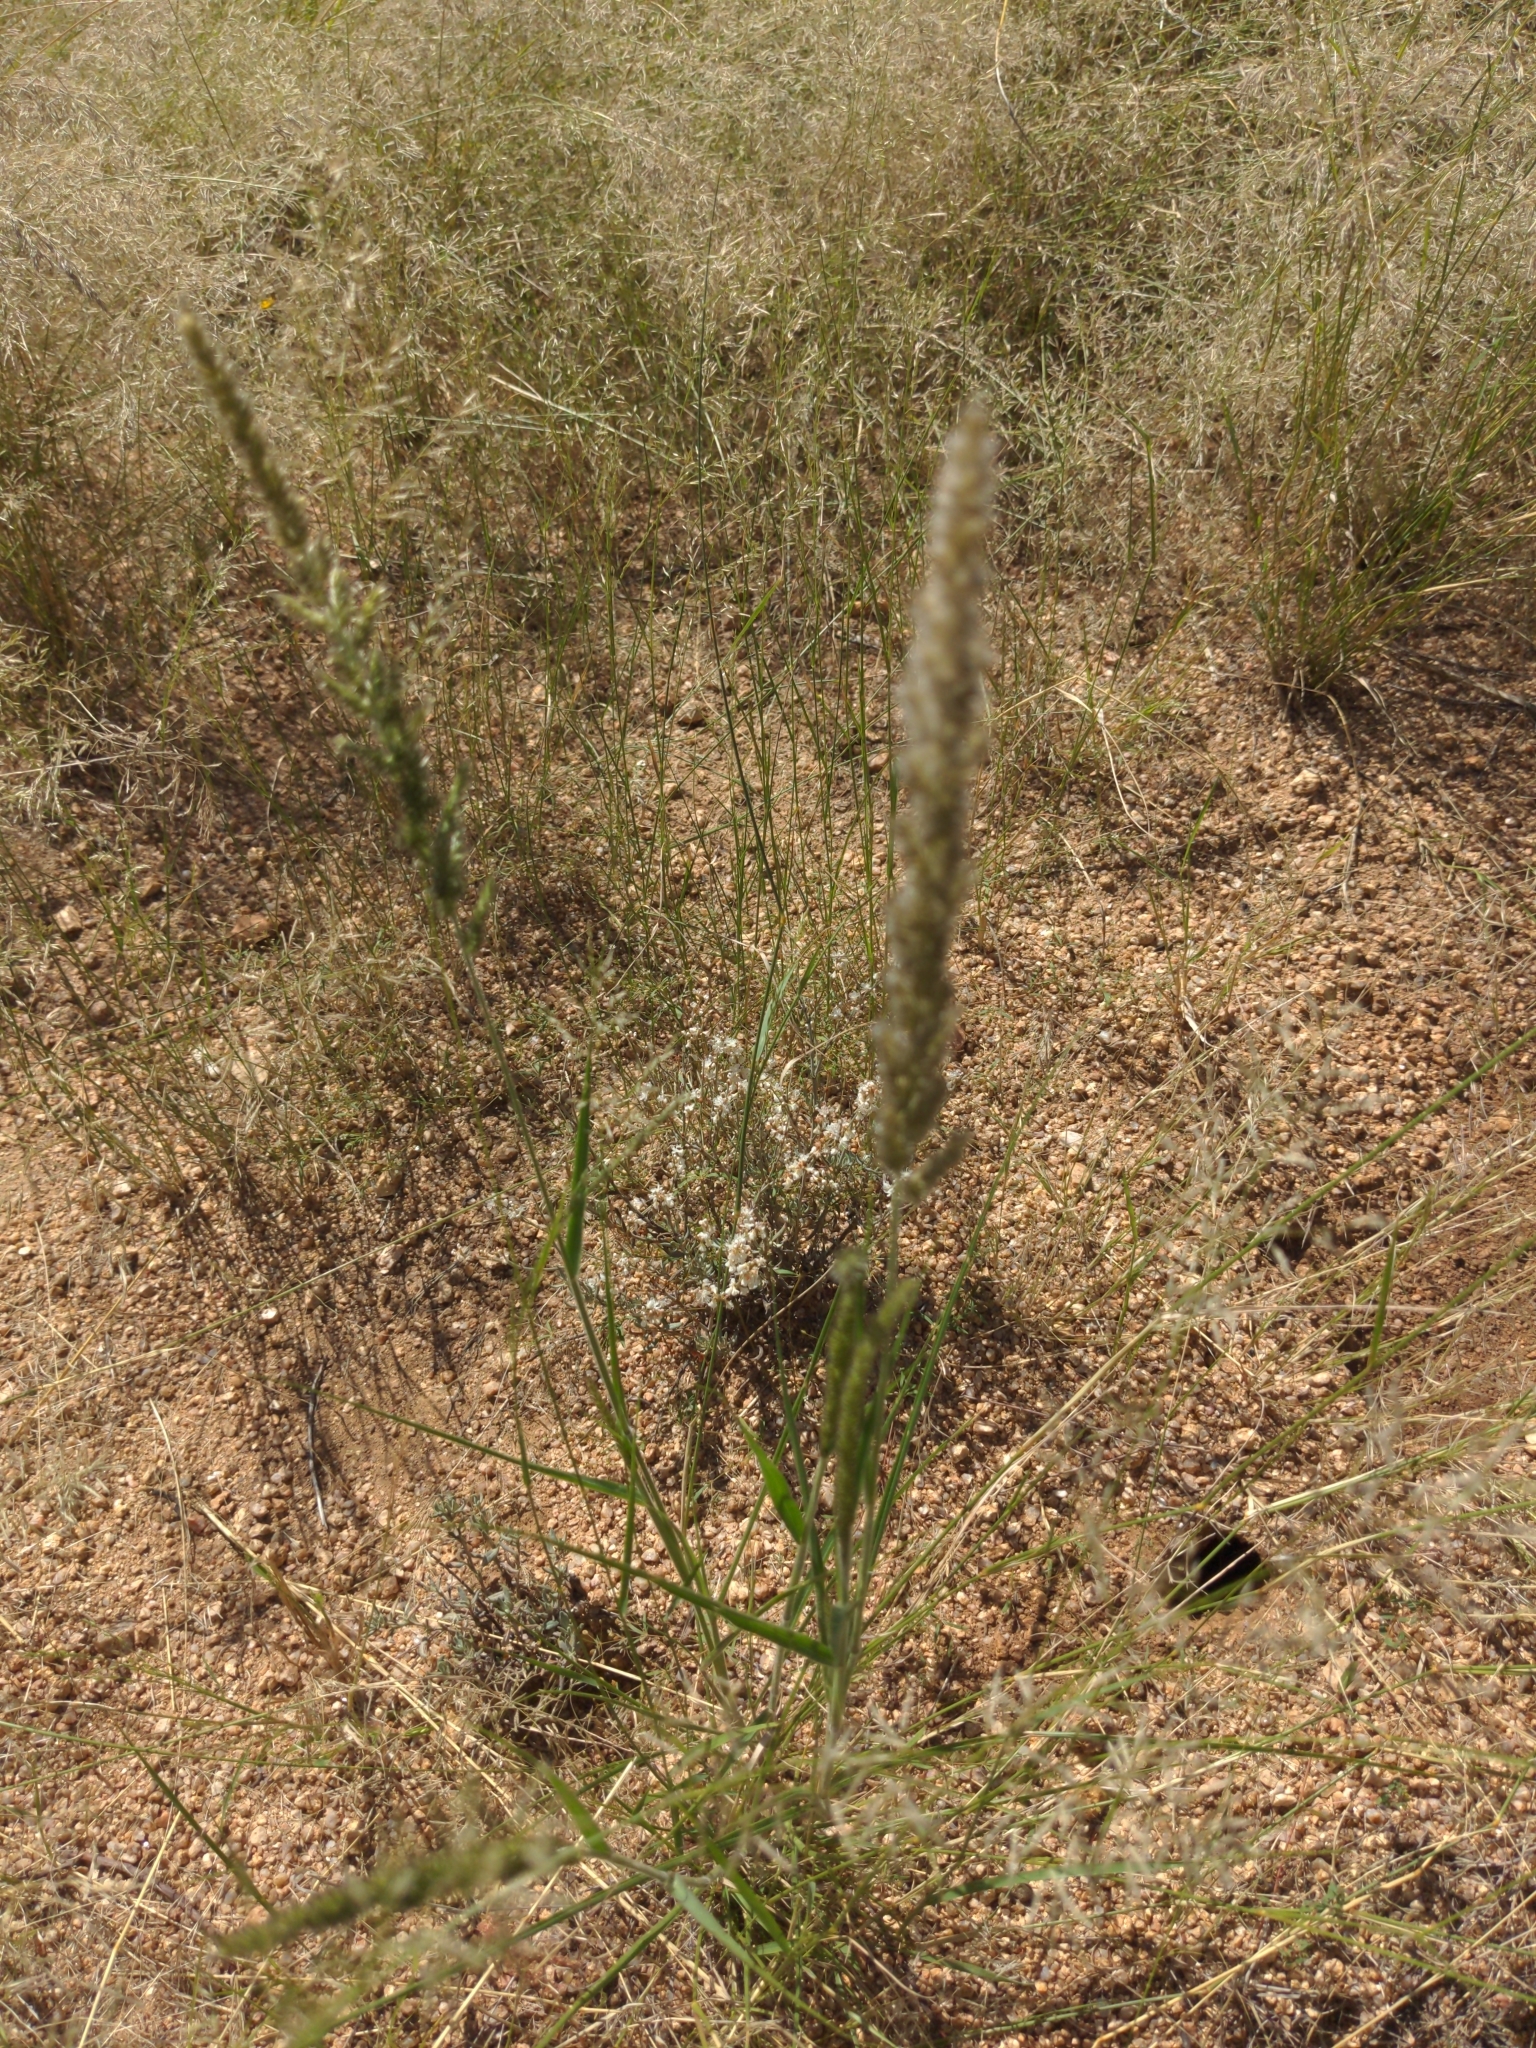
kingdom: Plantae
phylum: Tracheophyta
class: Liliopsida
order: Poales
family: Poaceae
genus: Enneapogon
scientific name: Enneapogon cenchroides
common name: Soft feather pappusgrass
